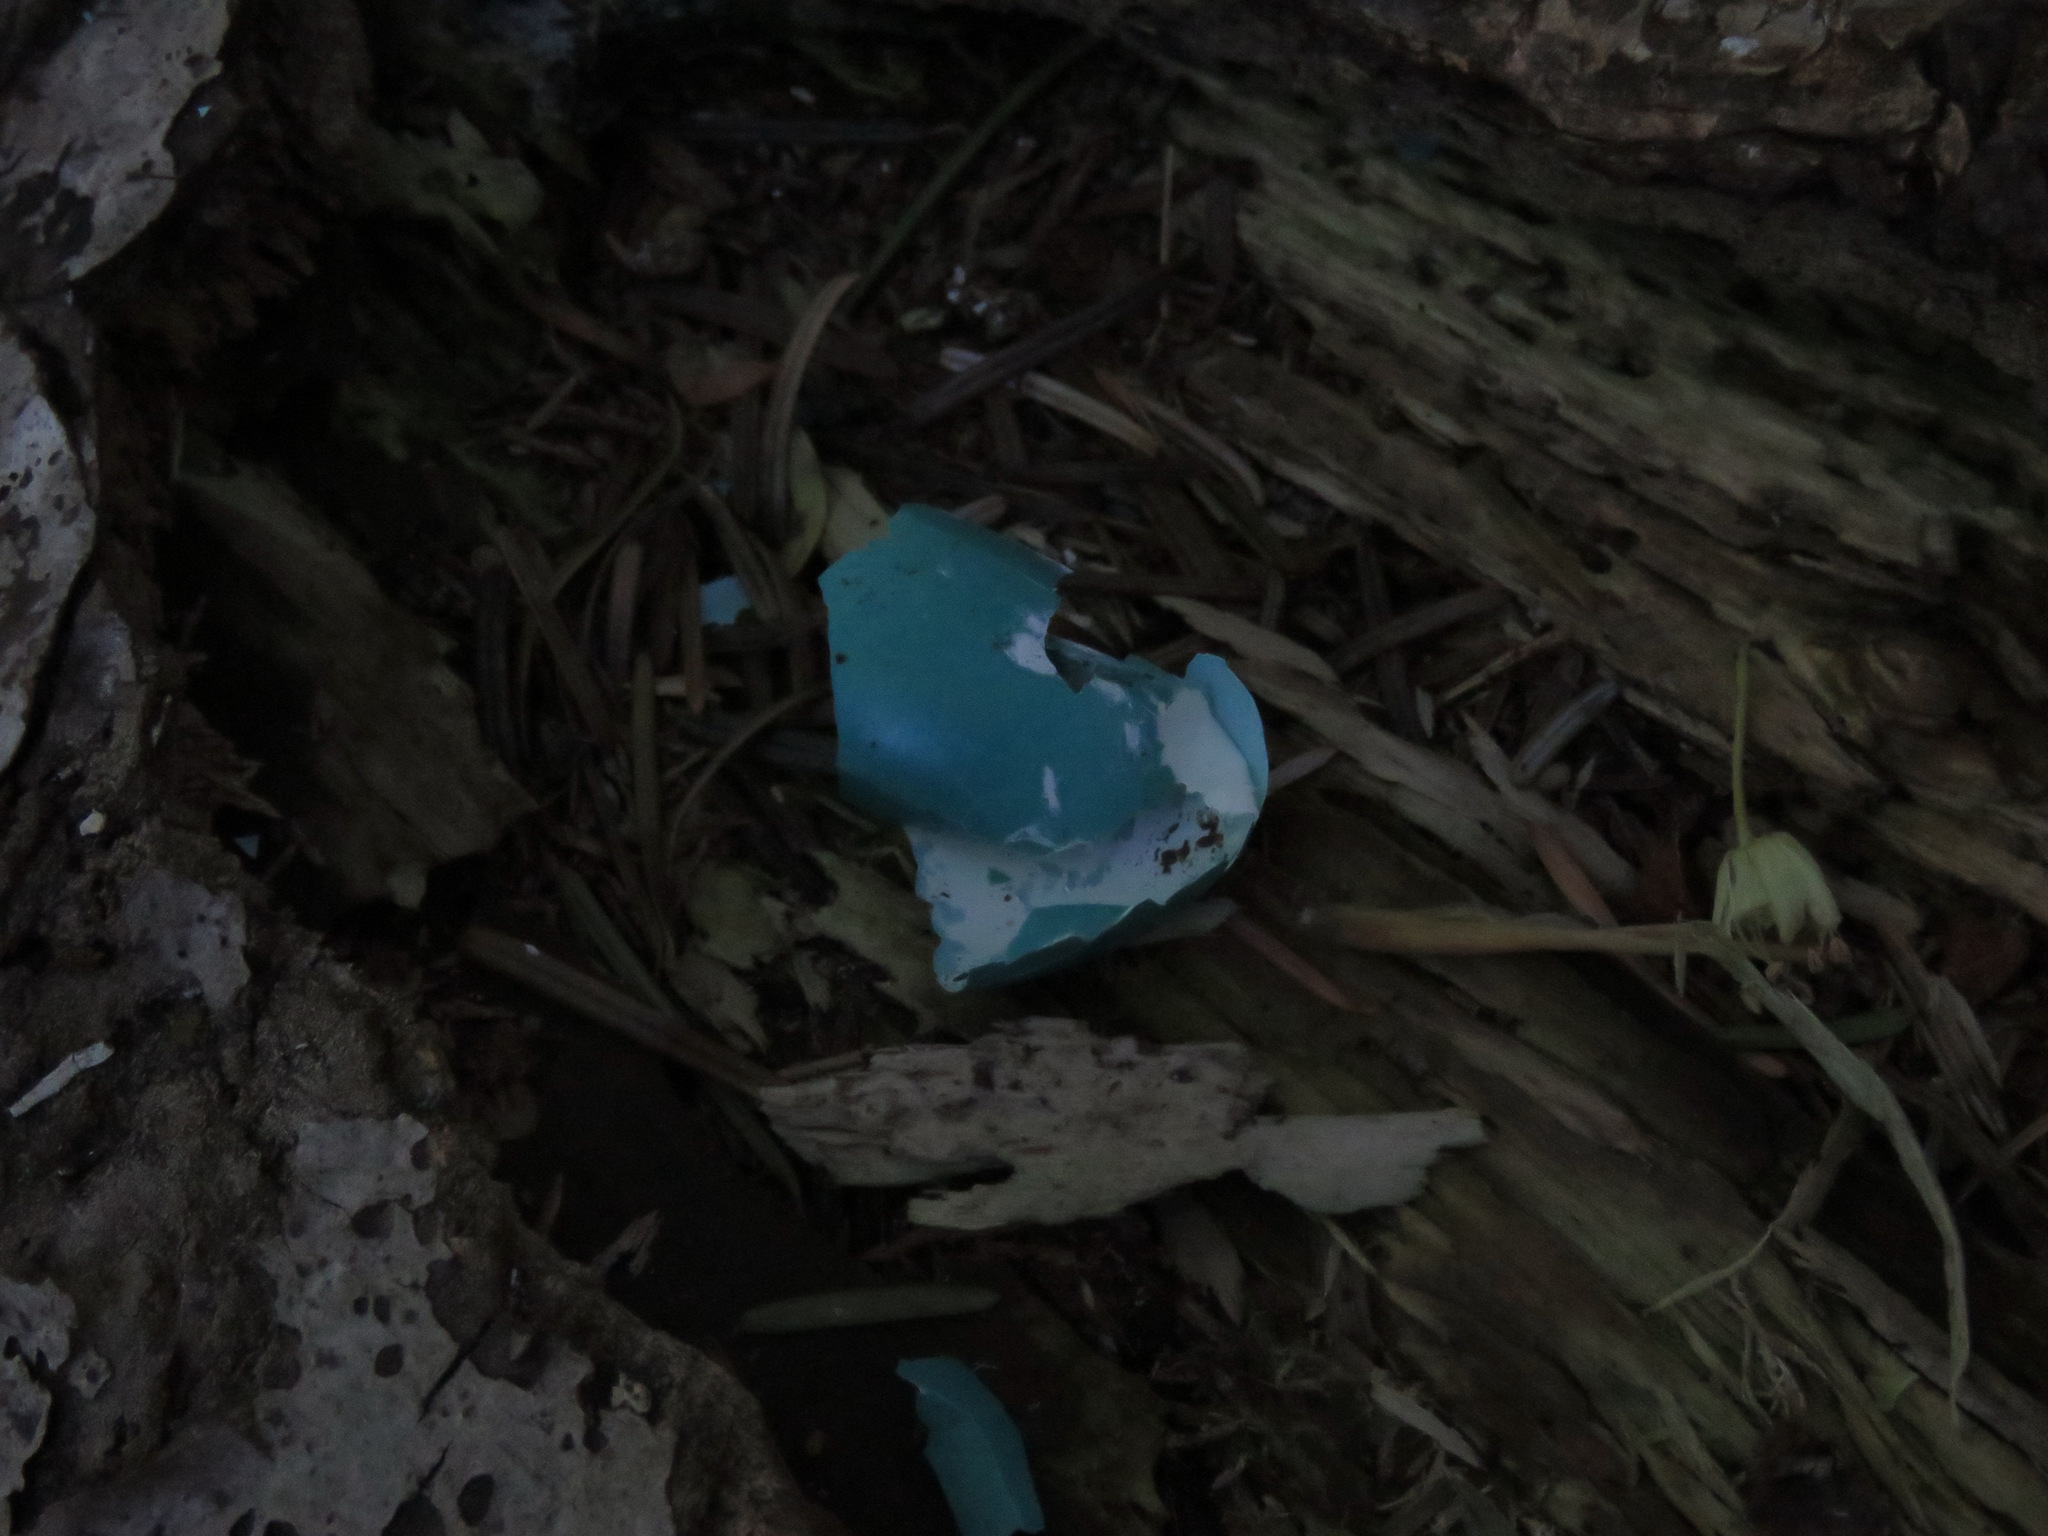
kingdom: Animalia
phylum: Chordata
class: Aves
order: Passeriformes
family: Turdidae
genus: Turdus
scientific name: Turdus migratorius
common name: American robin
